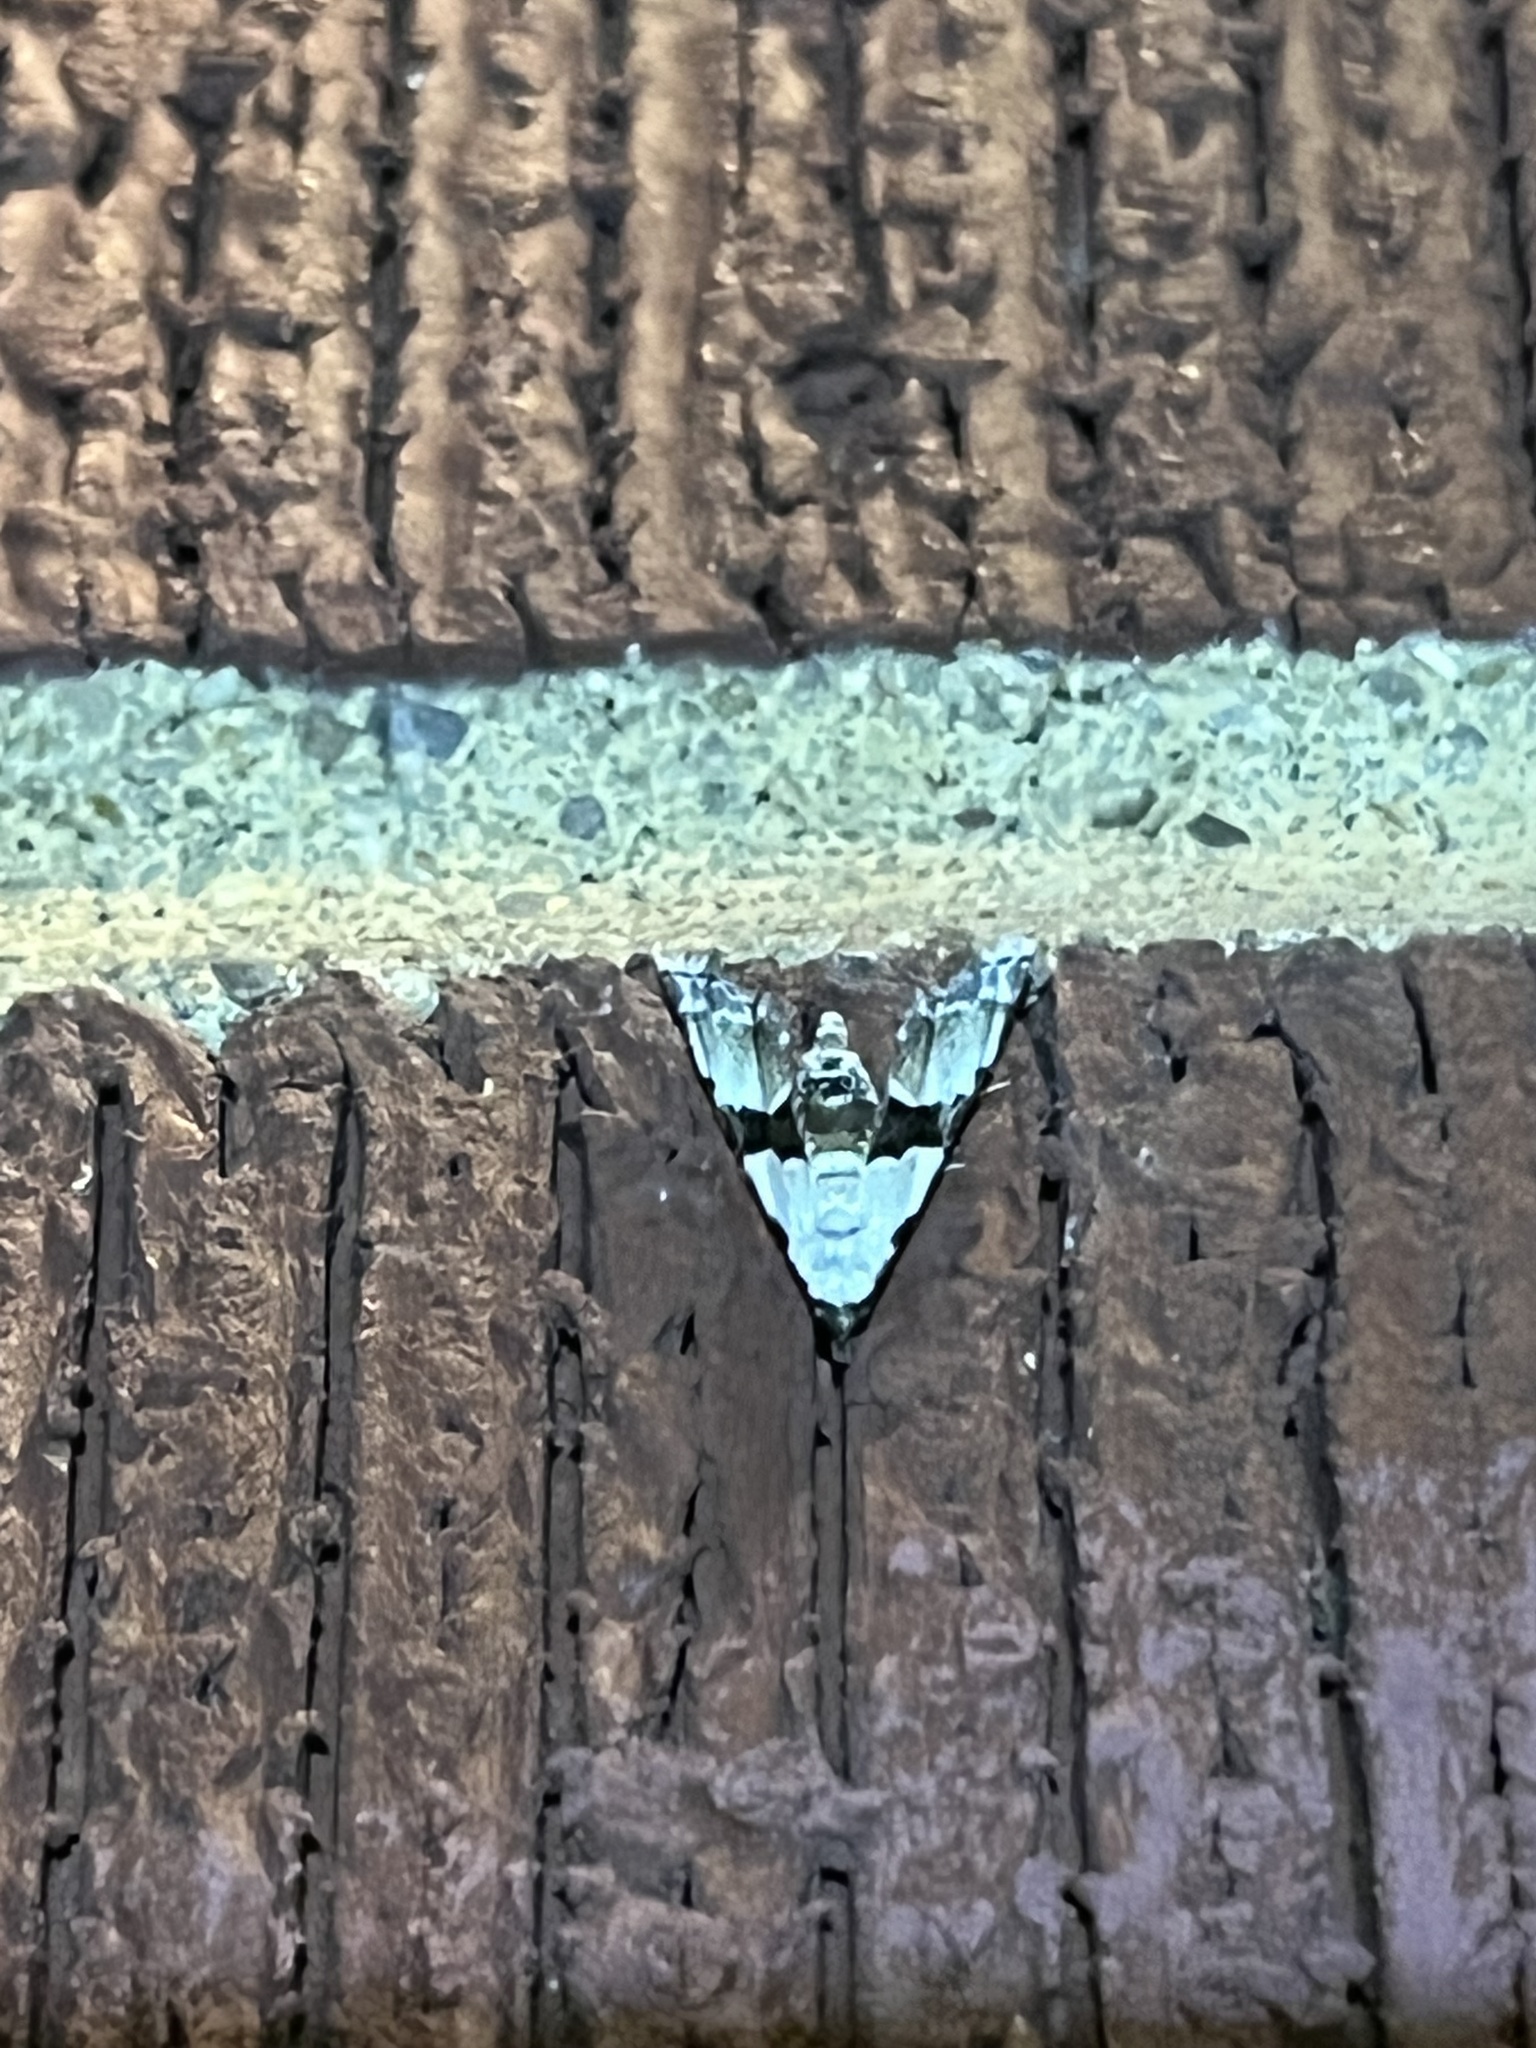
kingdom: Animalia
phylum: Arthropoda
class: Insecta
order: Lepidoptera
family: Noctuidae
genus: Nigetia
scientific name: Nigetia formosalis
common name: Thin-winged owlet
